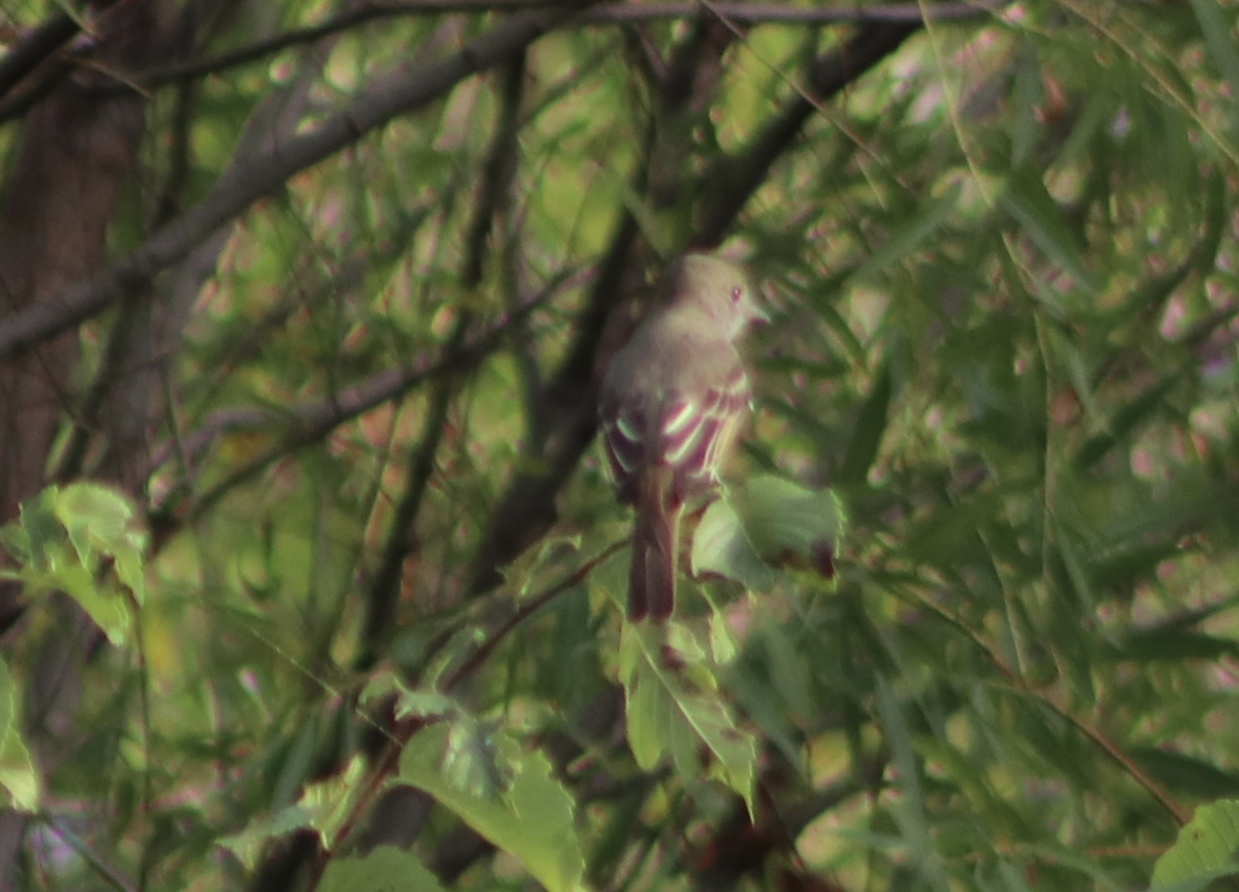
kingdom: Animalia
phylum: Chordata
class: Aves
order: Passeriformes
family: Tyrannidae
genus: Myiarchus
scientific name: Myiarchus crinitus
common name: Great crested flycatcher
